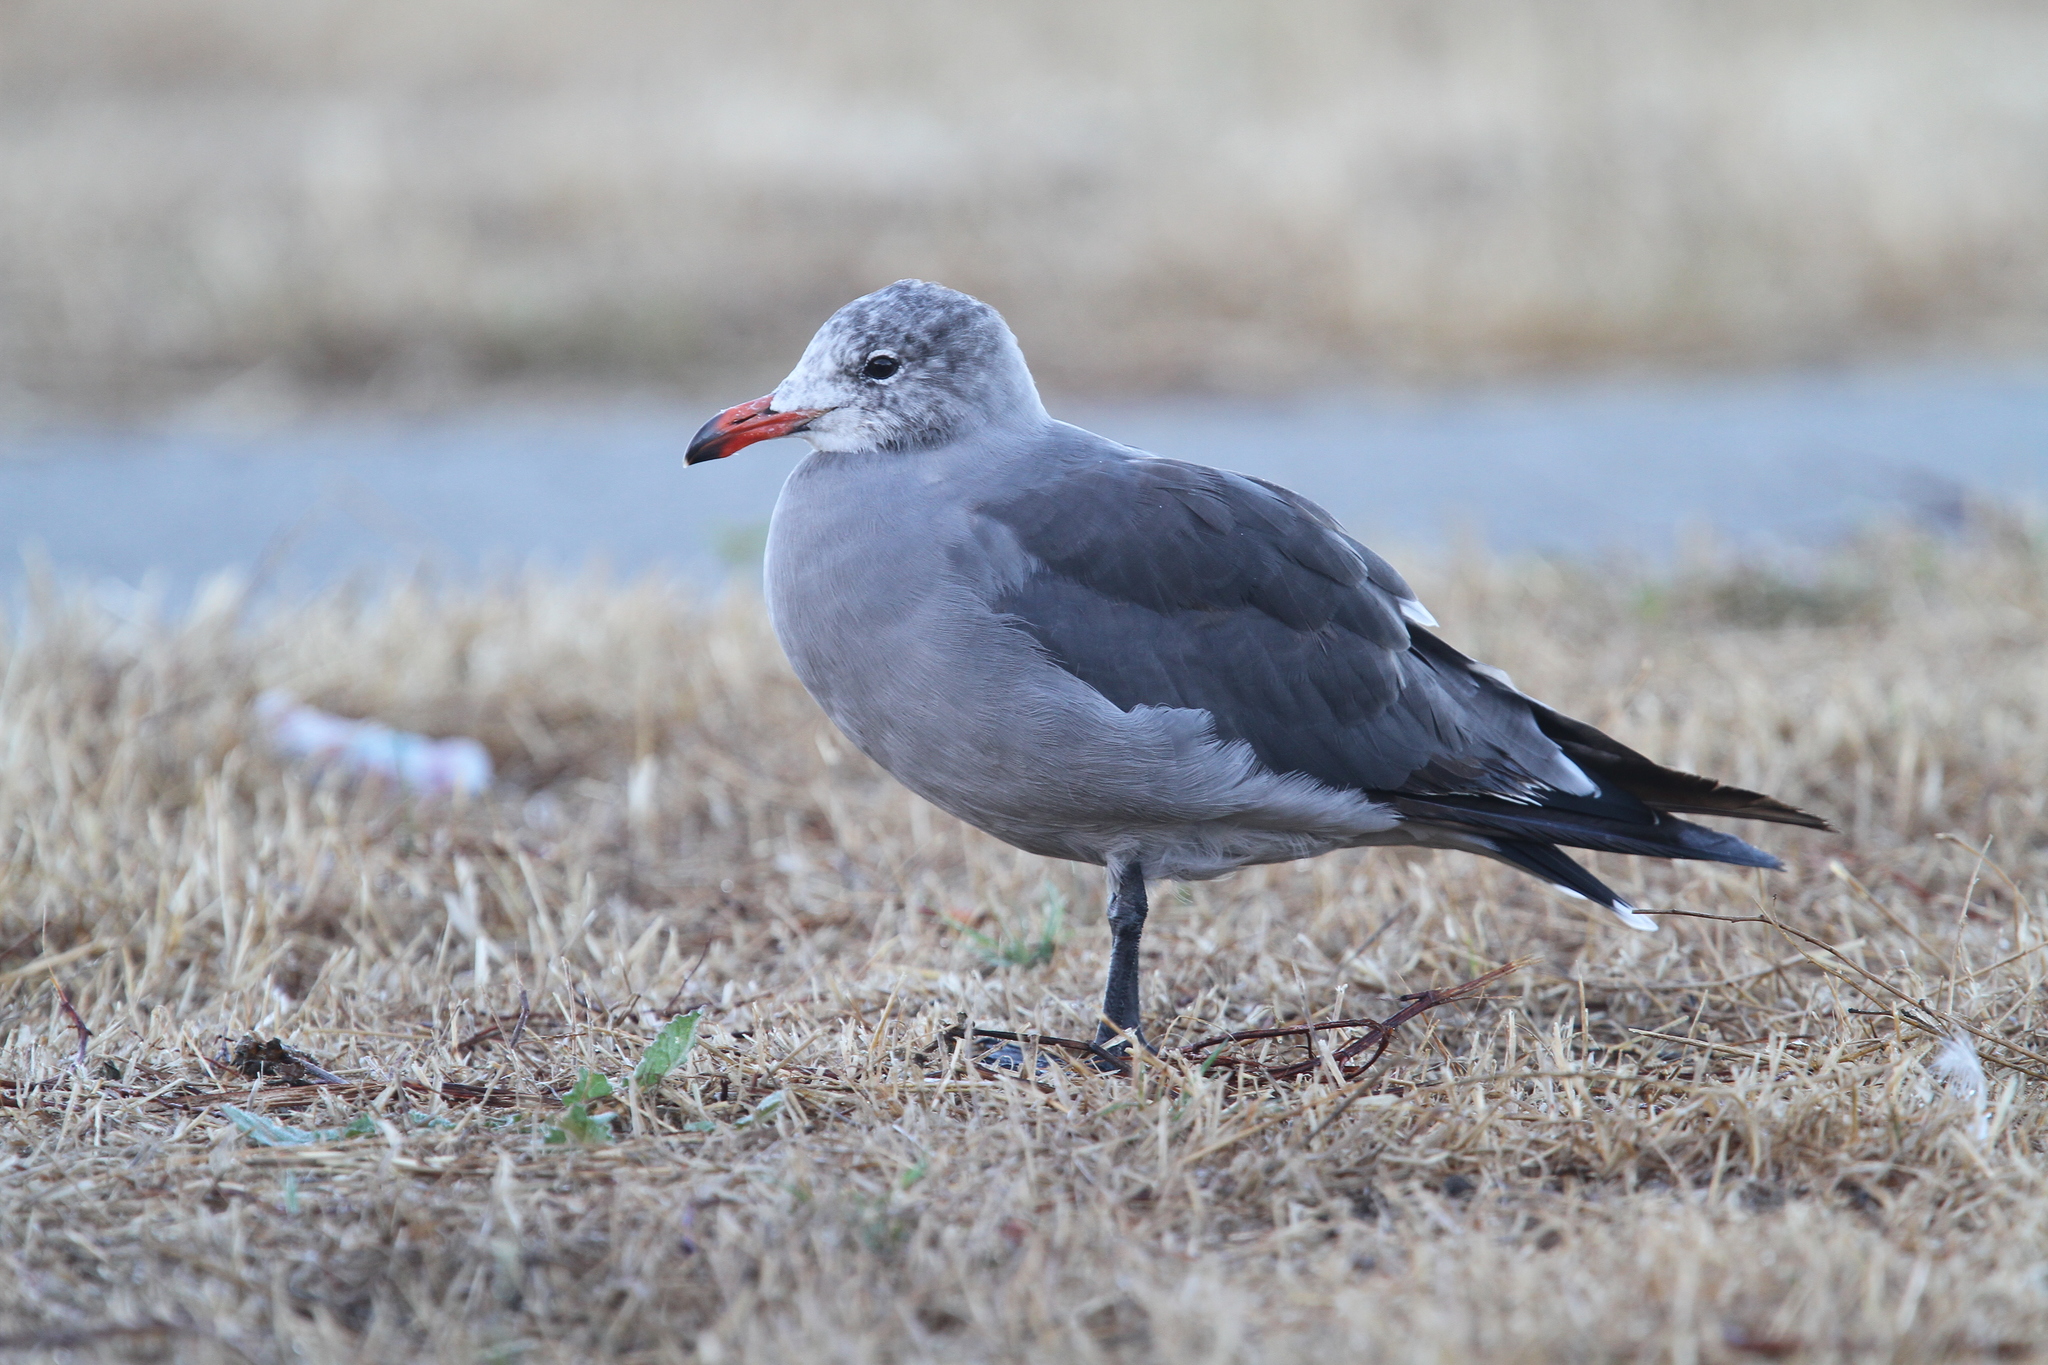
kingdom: Animalia
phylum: Chordata
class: Aves
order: Charadriiformes
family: Laridae
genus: Larus
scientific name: Larus heermanni
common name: Heermann's gull
